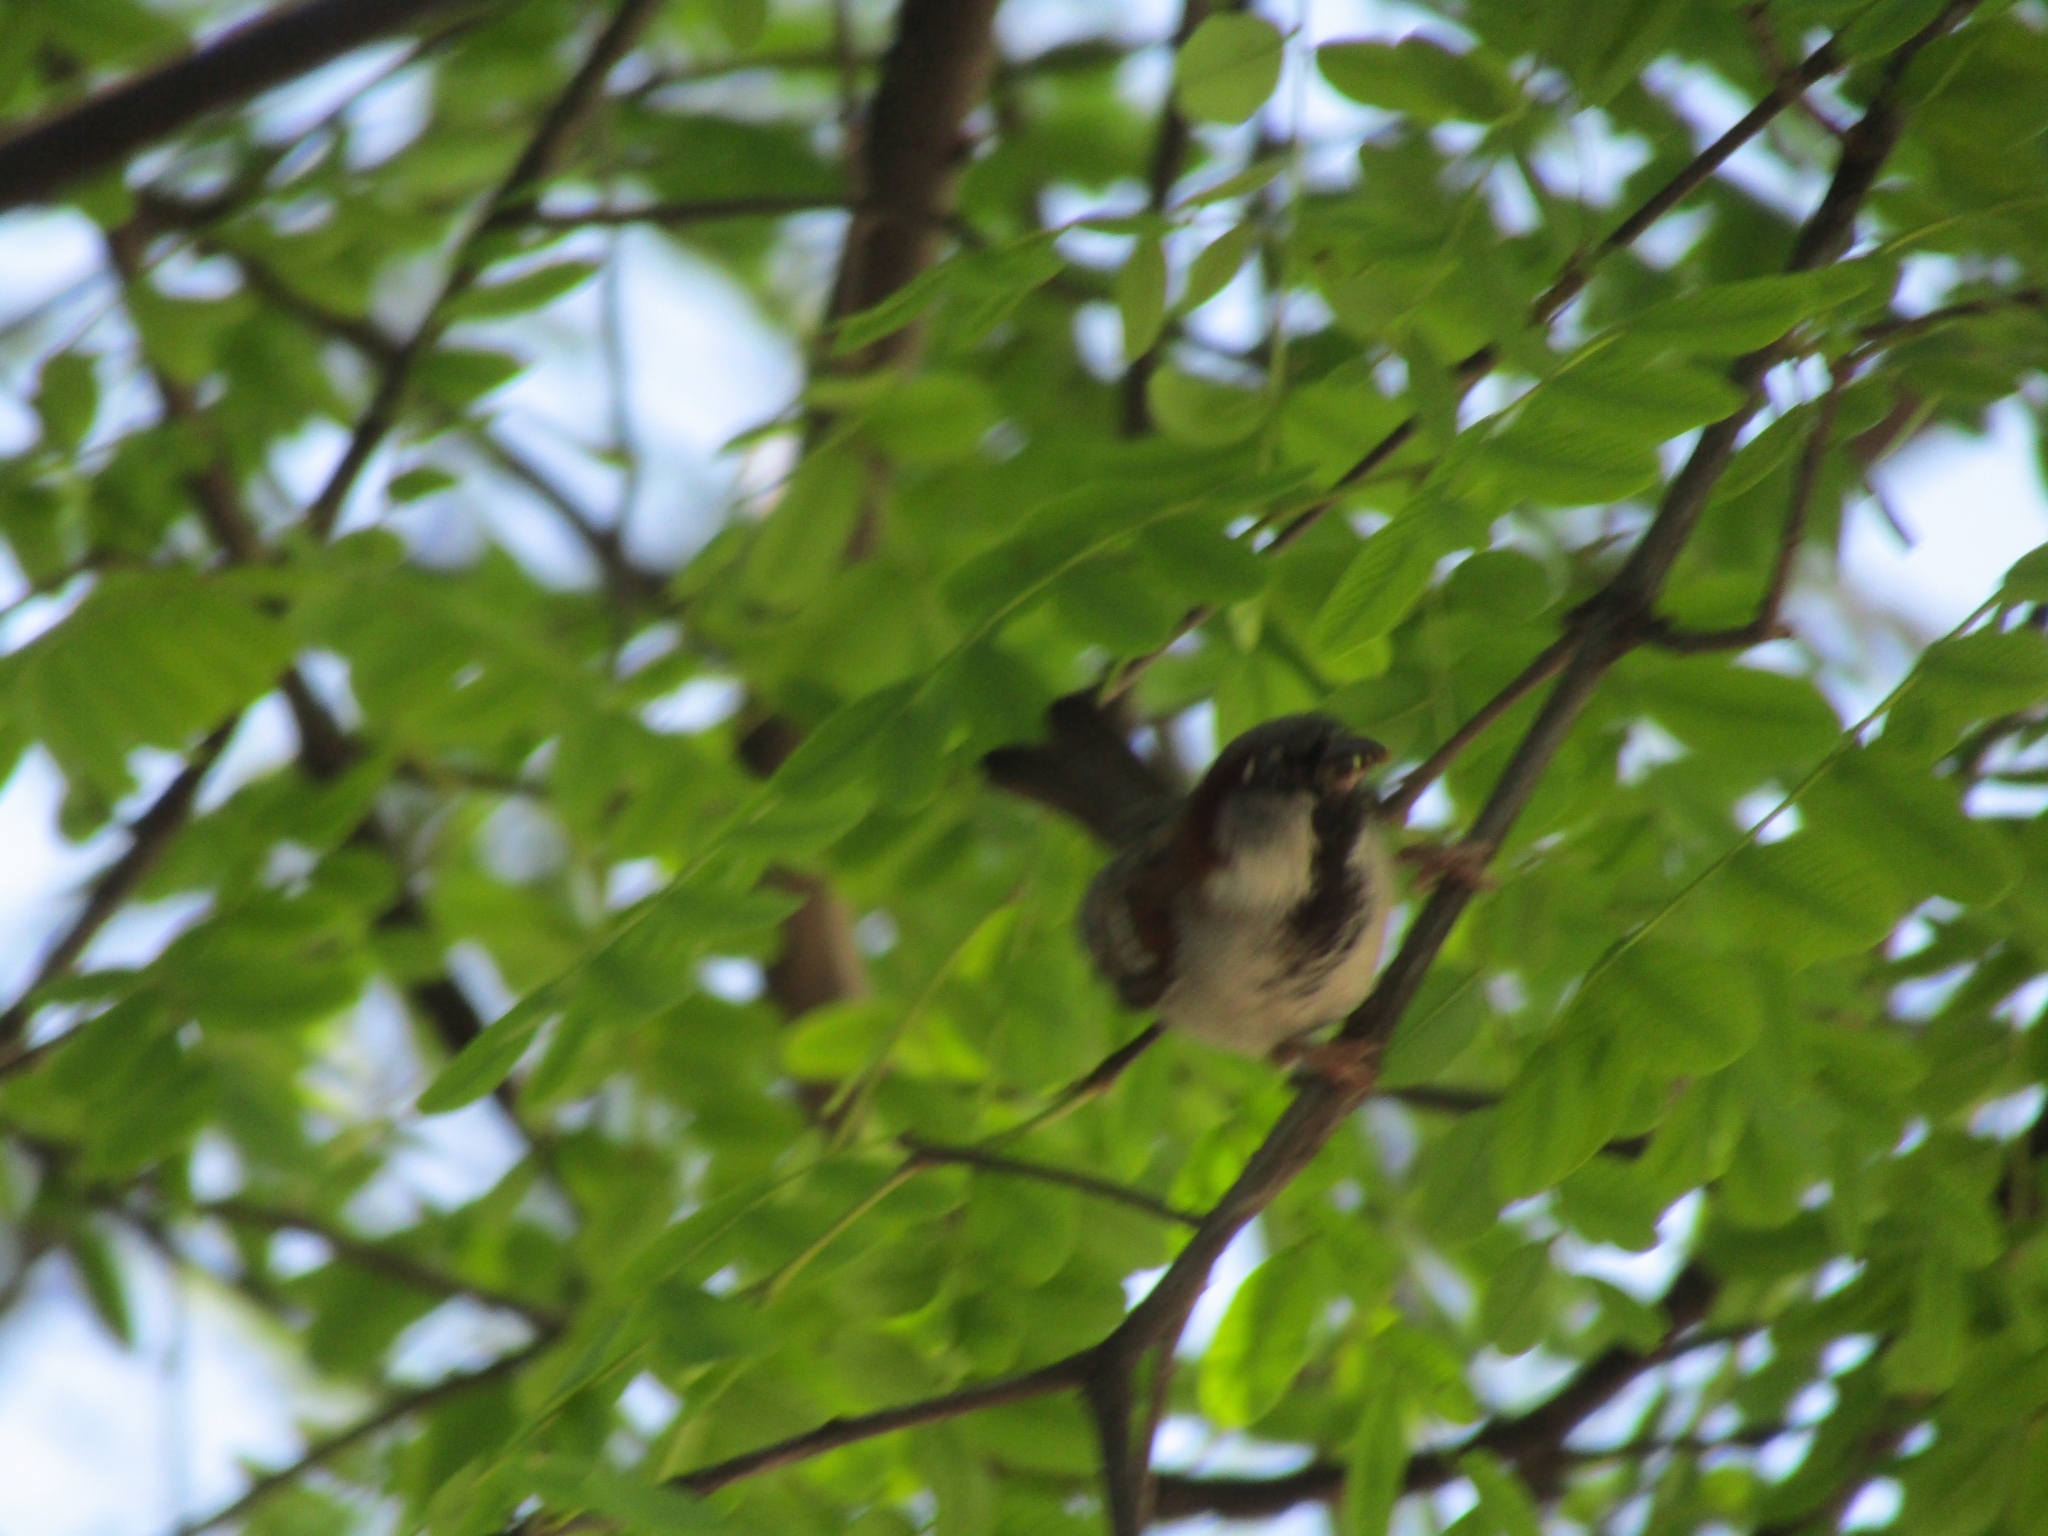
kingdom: Animalia
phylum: Chordata
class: Aves
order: Passeriformes
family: Passeridae
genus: Passer
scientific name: Passer domesticus
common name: House sparrow
